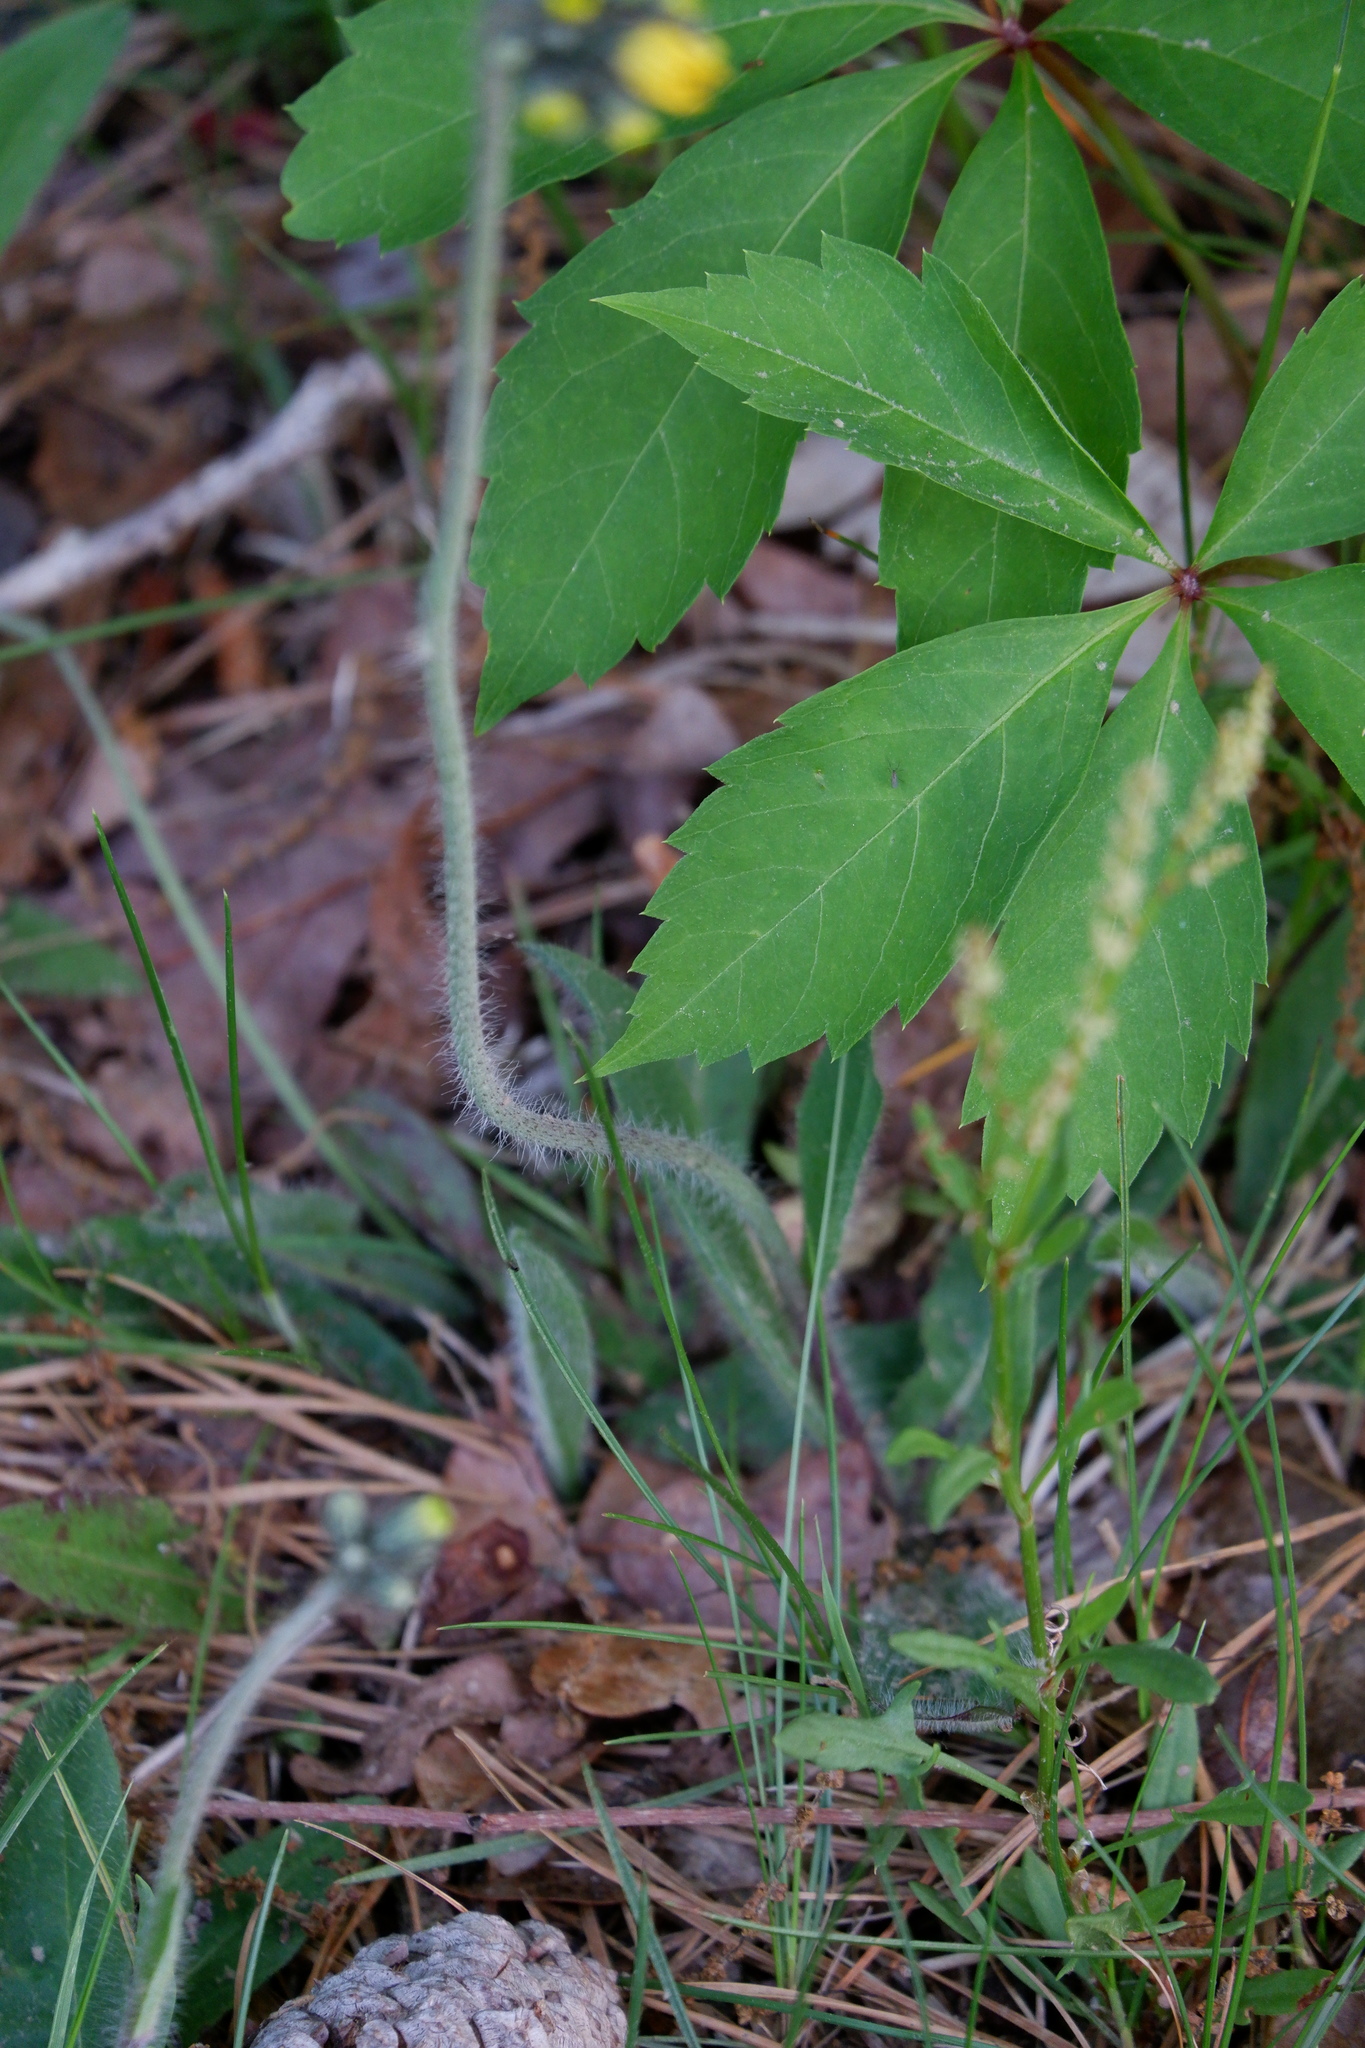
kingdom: Plantae
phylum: Tracheophyta
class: Magnoliopsida
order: Asterales
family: Asteraceae
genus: Pilosella
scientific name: Pilosella caespitosa
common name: Yellow fox-and-cubs
